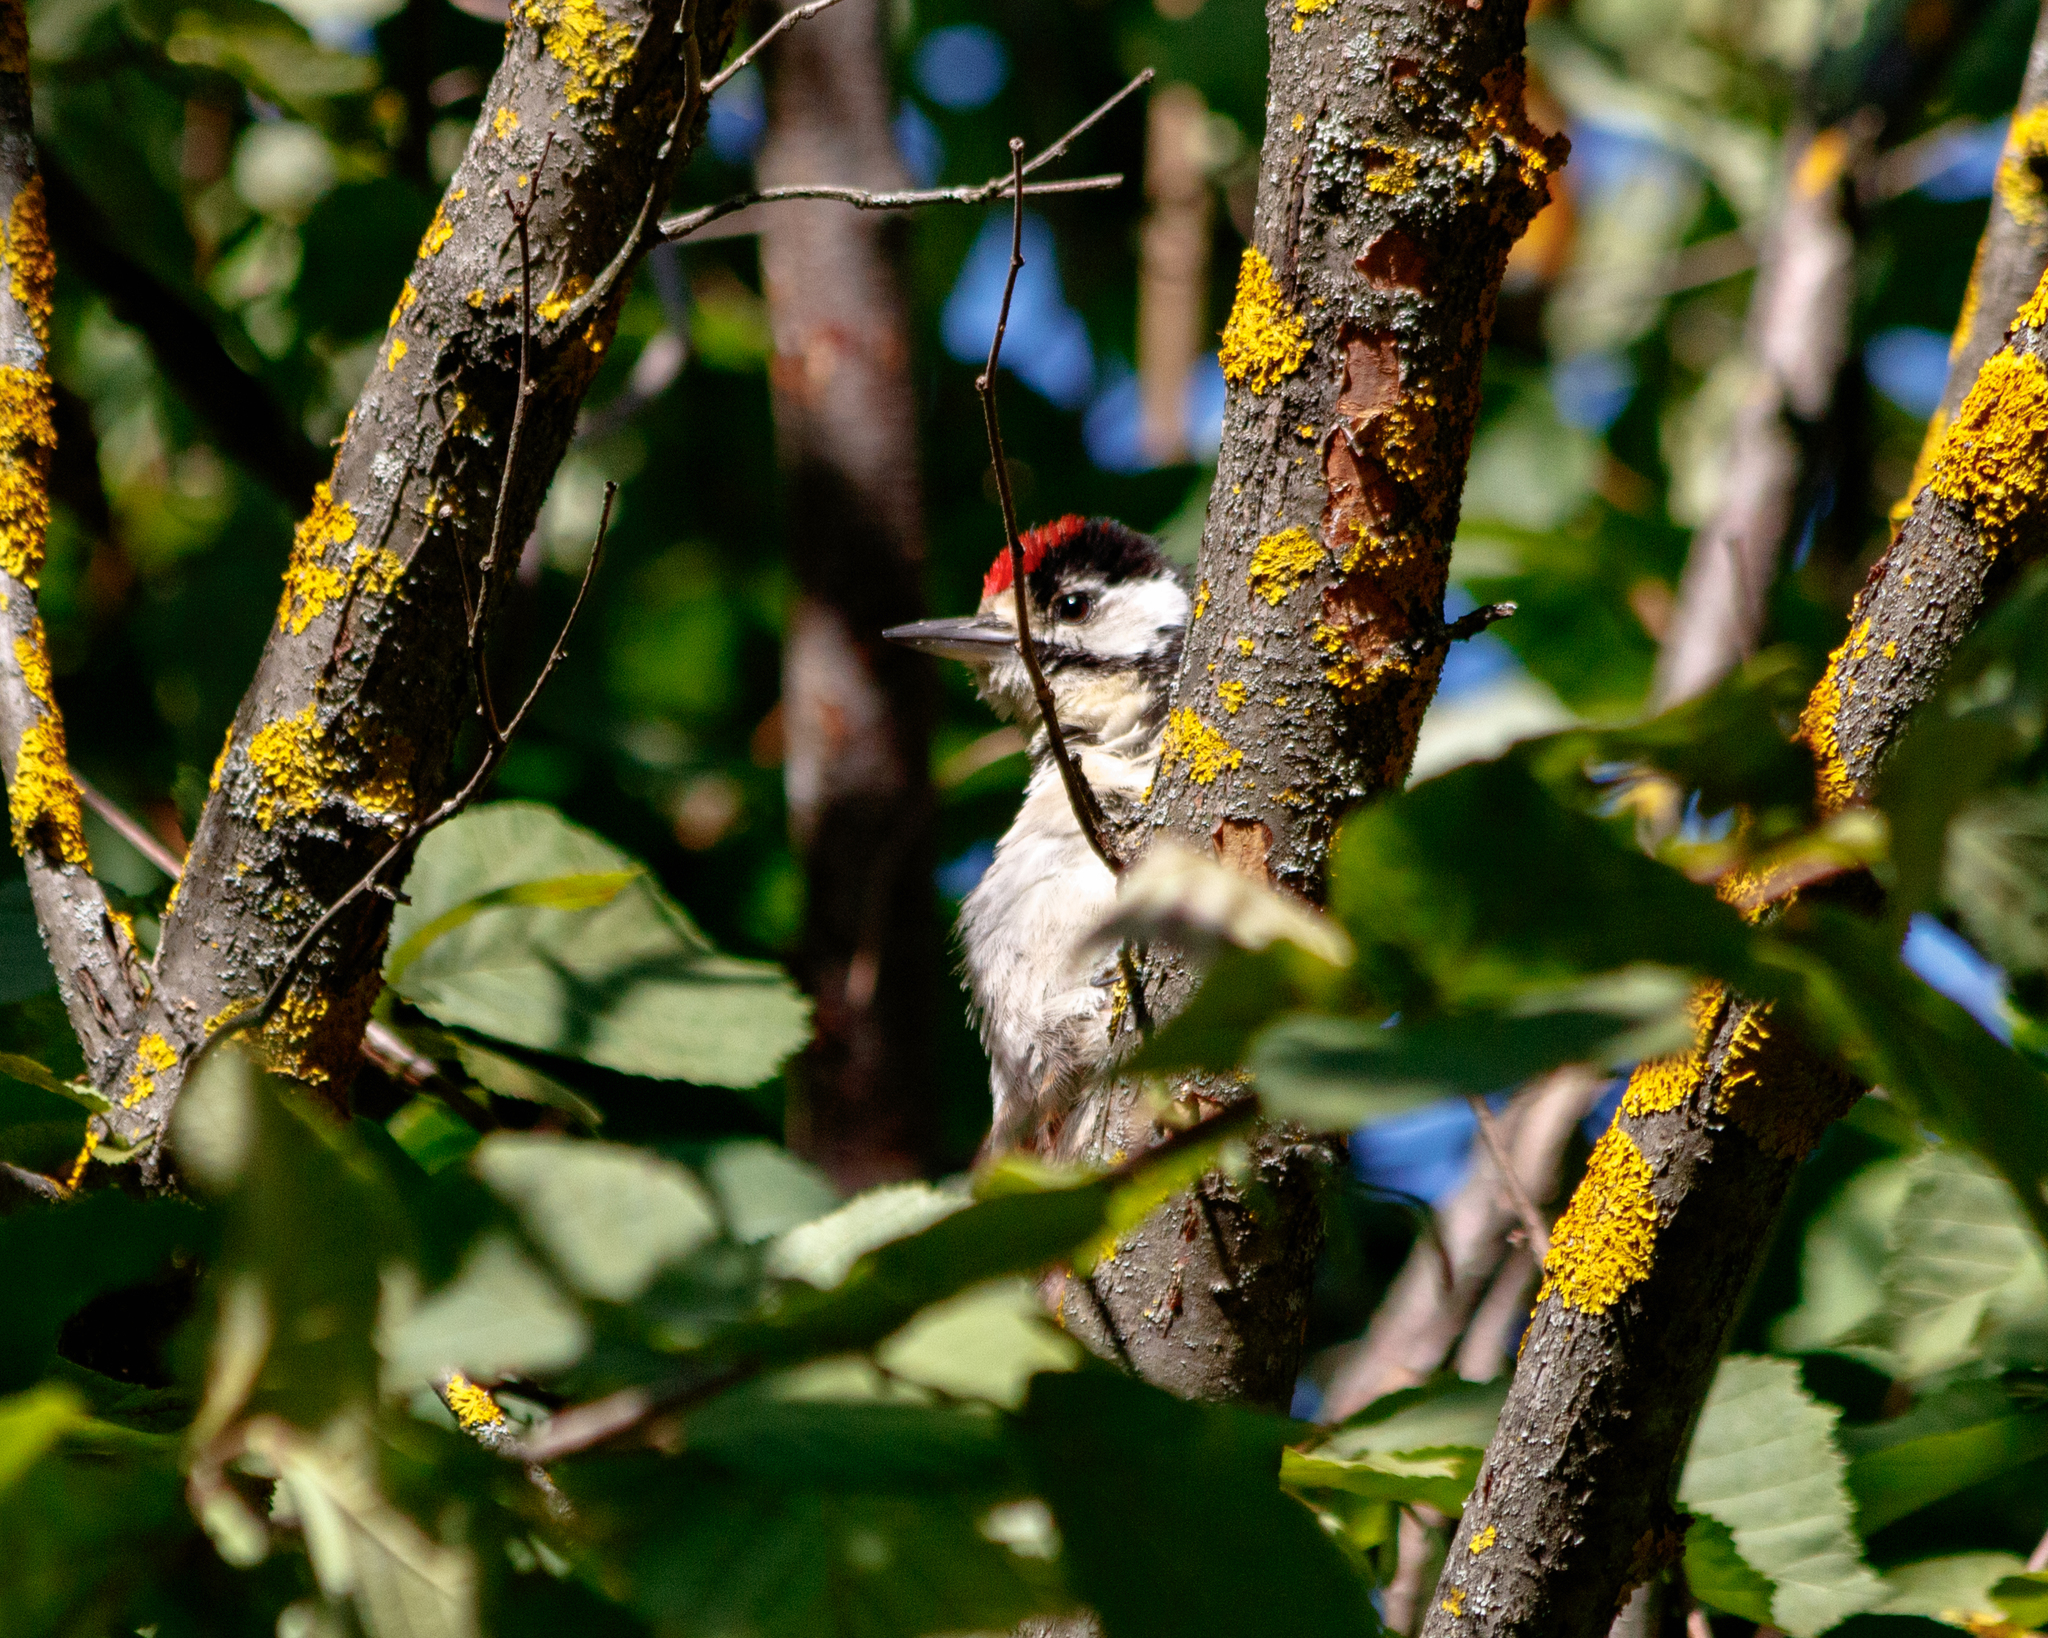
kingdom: Animalia
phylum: Chordata
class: Aves
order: Piciformes
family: Picidae
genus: Dendrocopos
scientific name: Dendrocopos major
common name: Great spotted woodpecker
